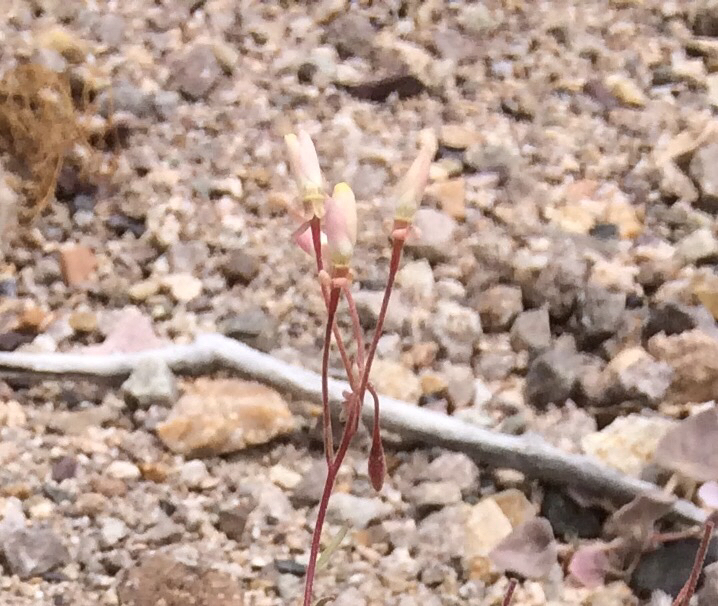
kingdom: Plantae
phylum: Tracheophyta
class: Magnoliopsida
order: Myrtales
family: Onagraceae
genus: Eremothera
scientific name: Eremothera refracta
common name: Narrowleaf suncup
